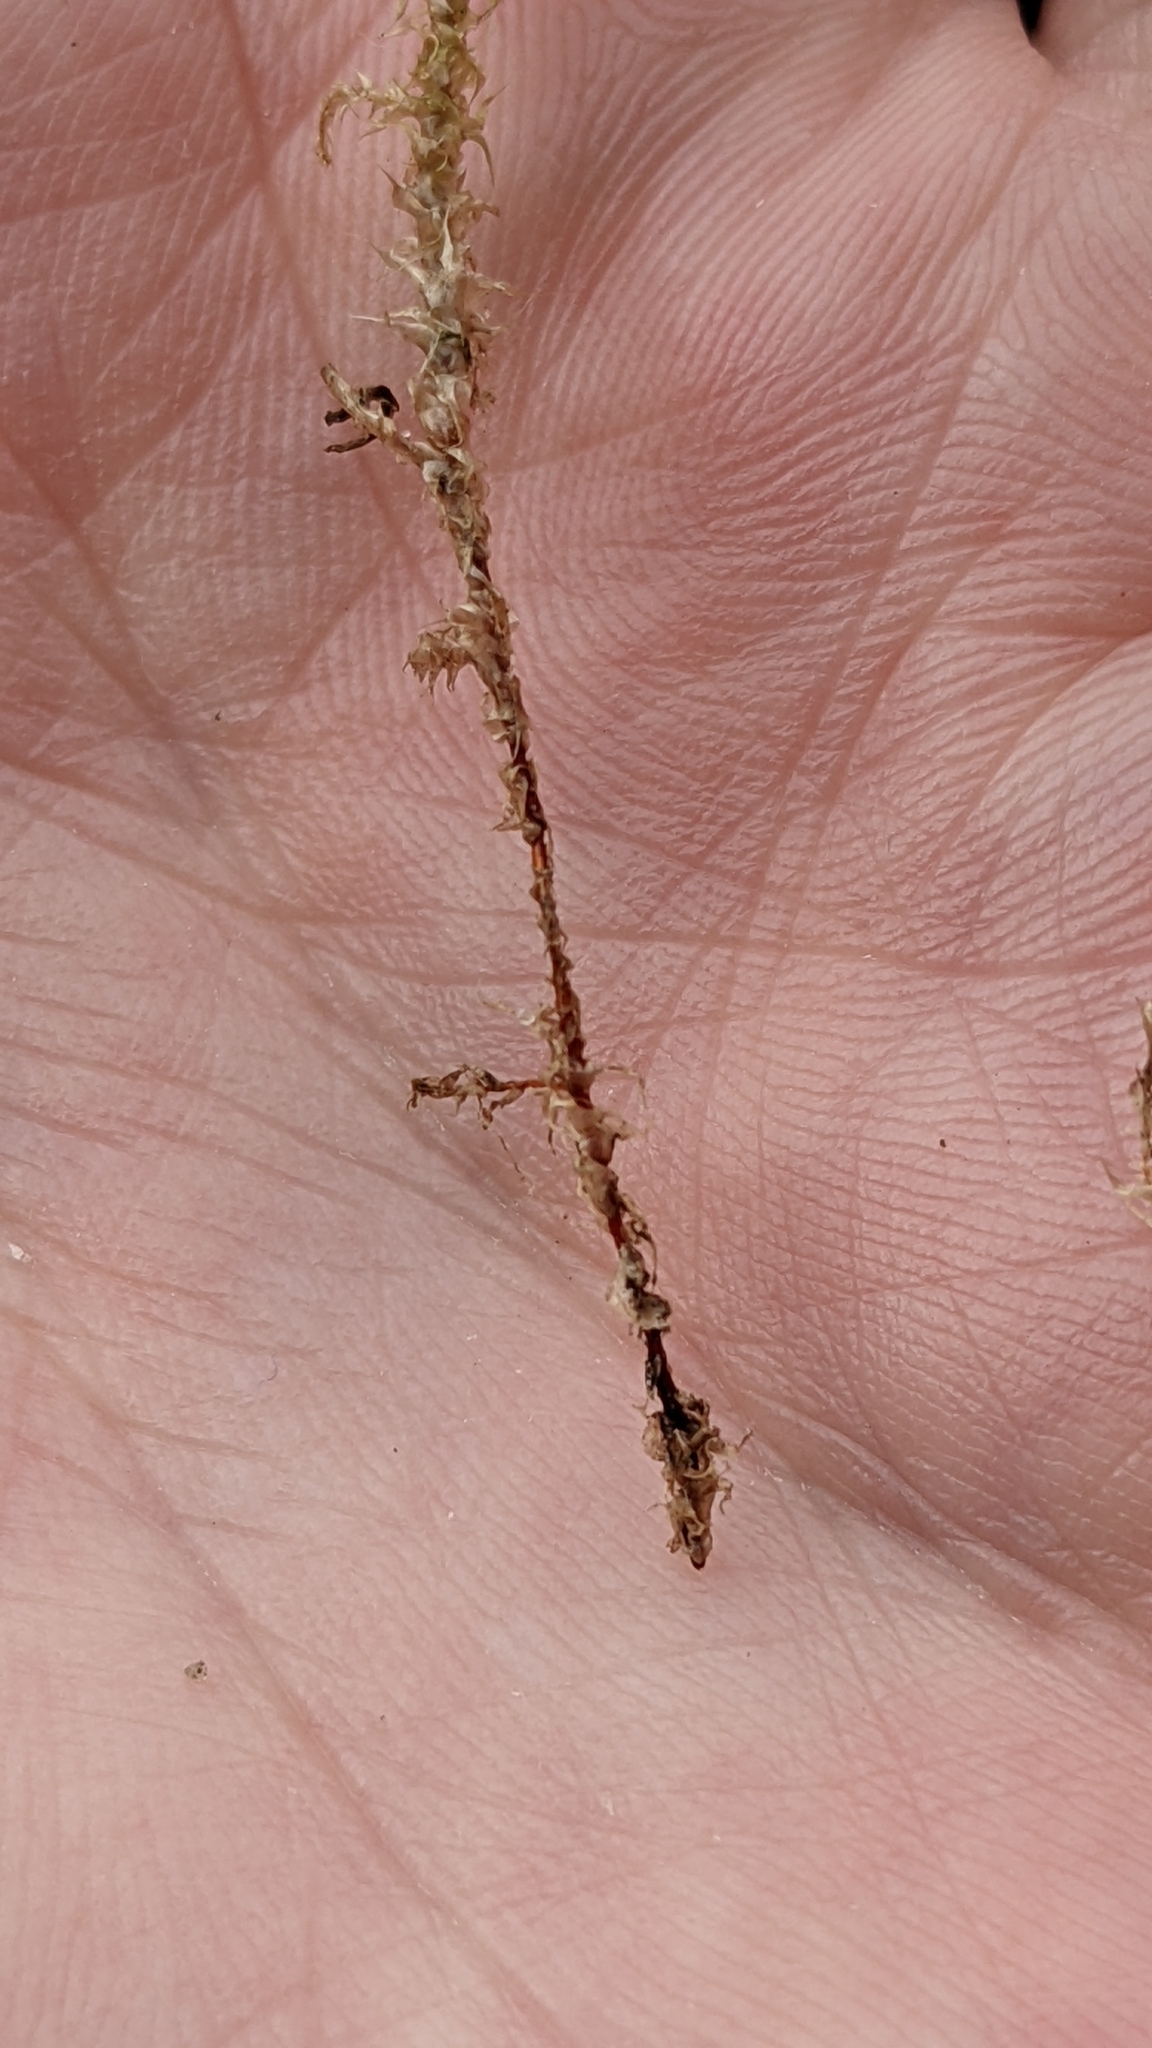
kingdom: Plantae
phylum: Bryophyta
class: Bryopsida
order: Hypnales
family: Hylocomiaceae
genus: Rhytidiadelphus
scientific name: Rhytidiadelphus squarrosus
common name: Springy turf-moss
